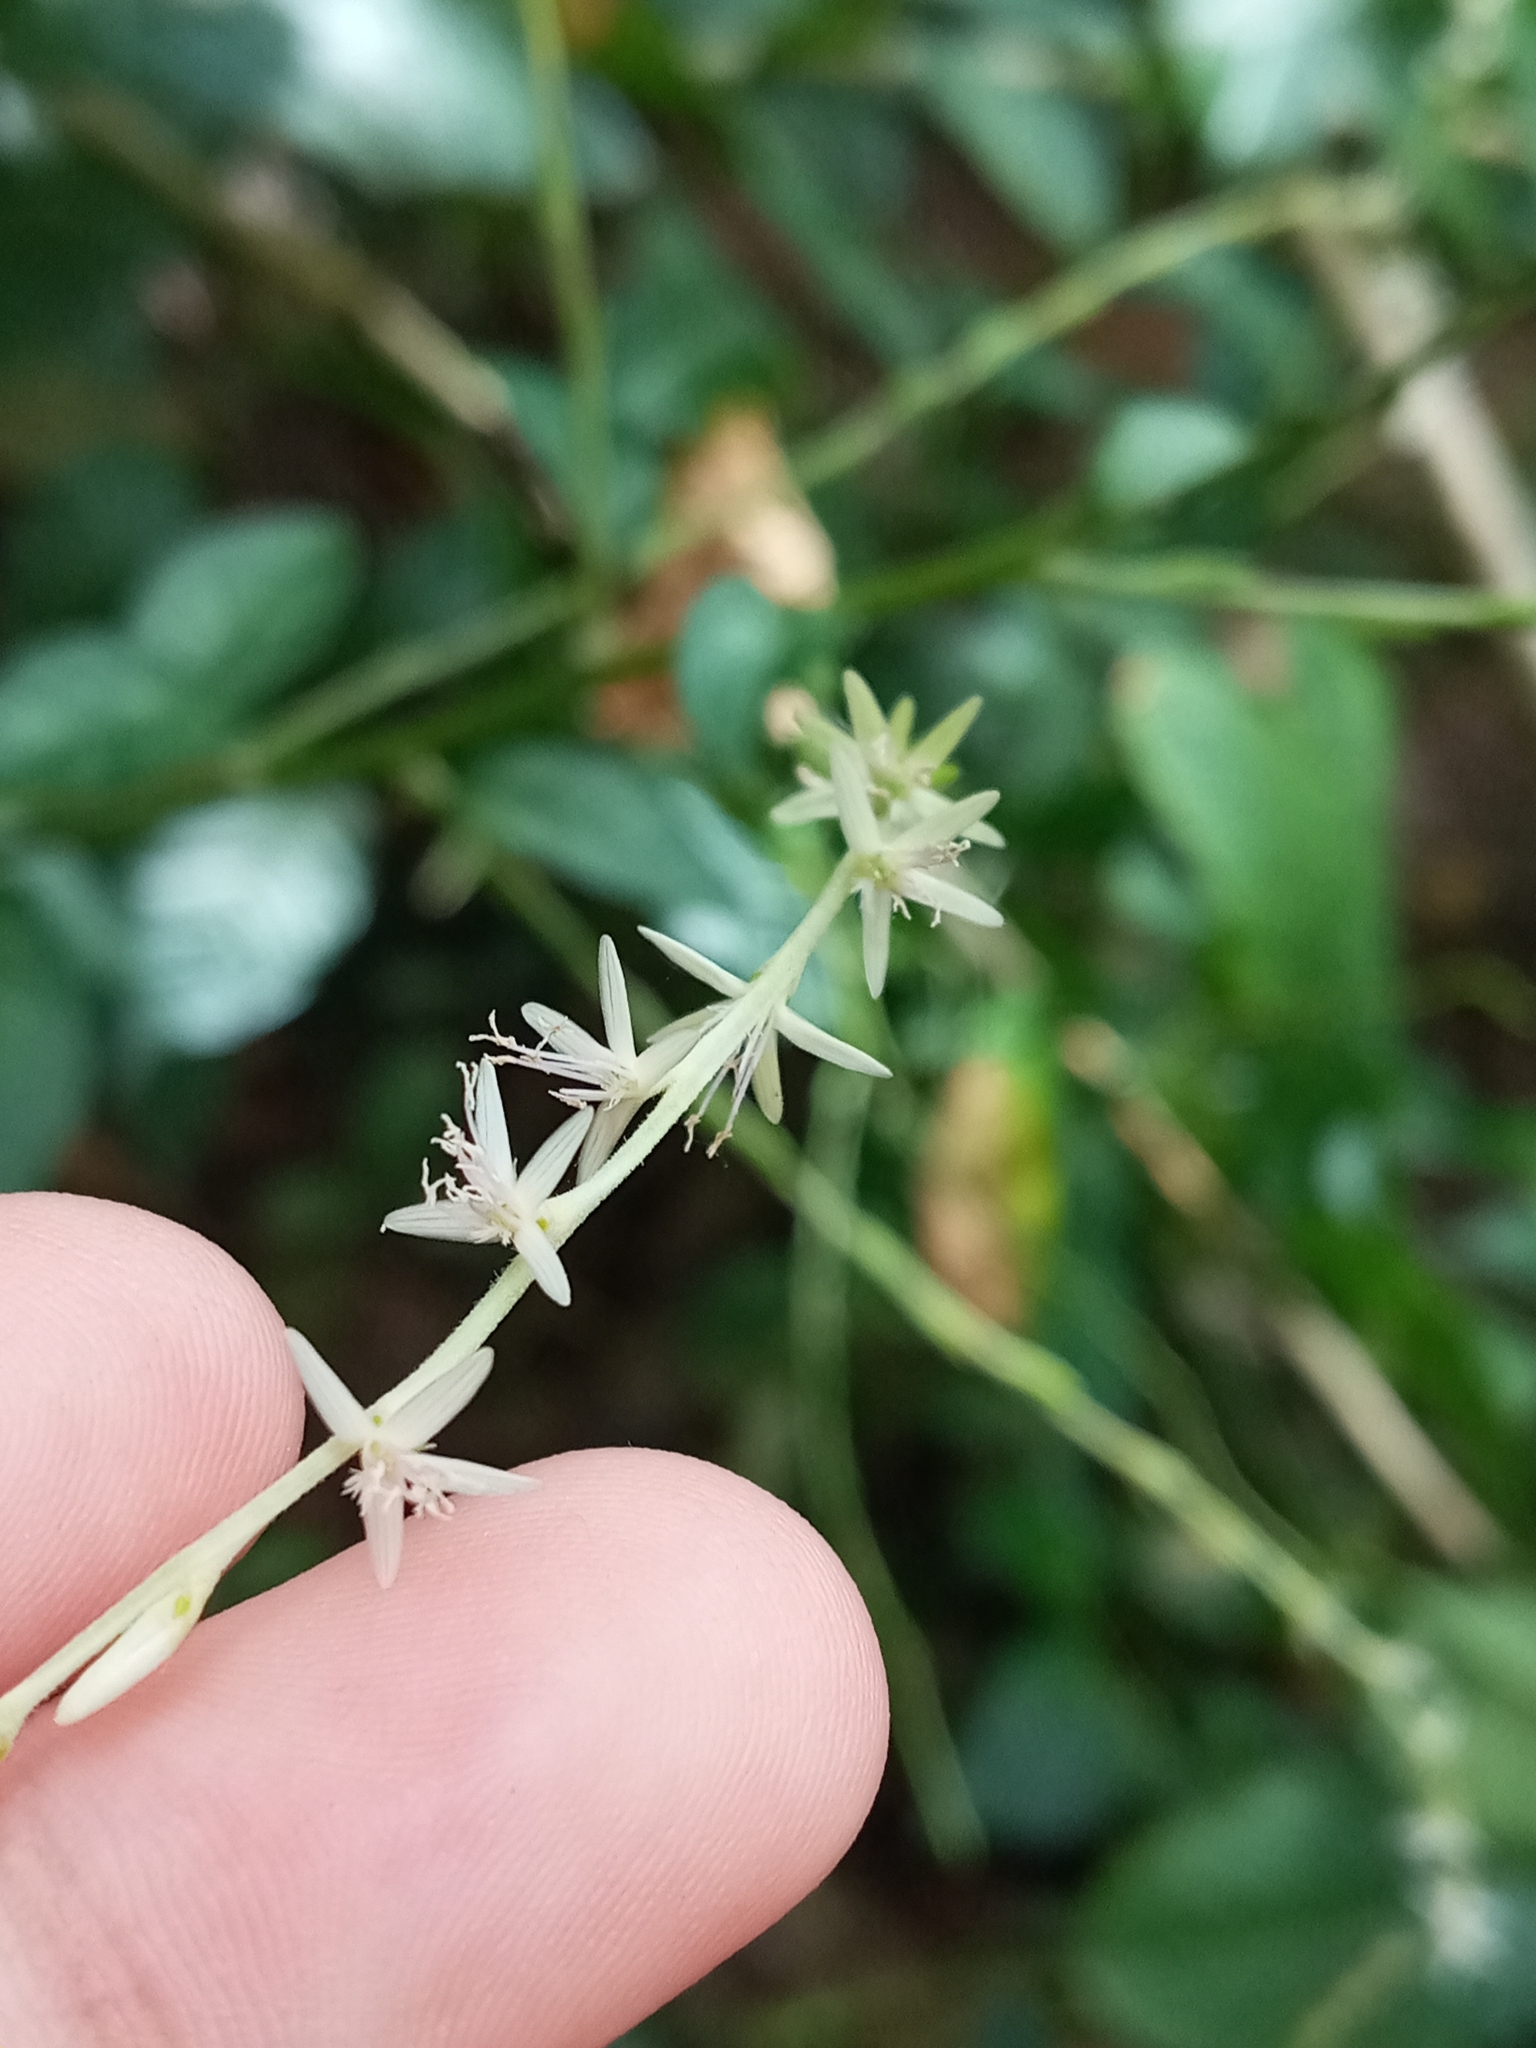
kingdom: Plantae
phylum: Tracheophyta
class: Magnoliopsida
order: Caryophyllales
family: Phytolaccaceae
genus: Petiveria
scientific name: Petiveria alliacea
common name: Garlicweed
